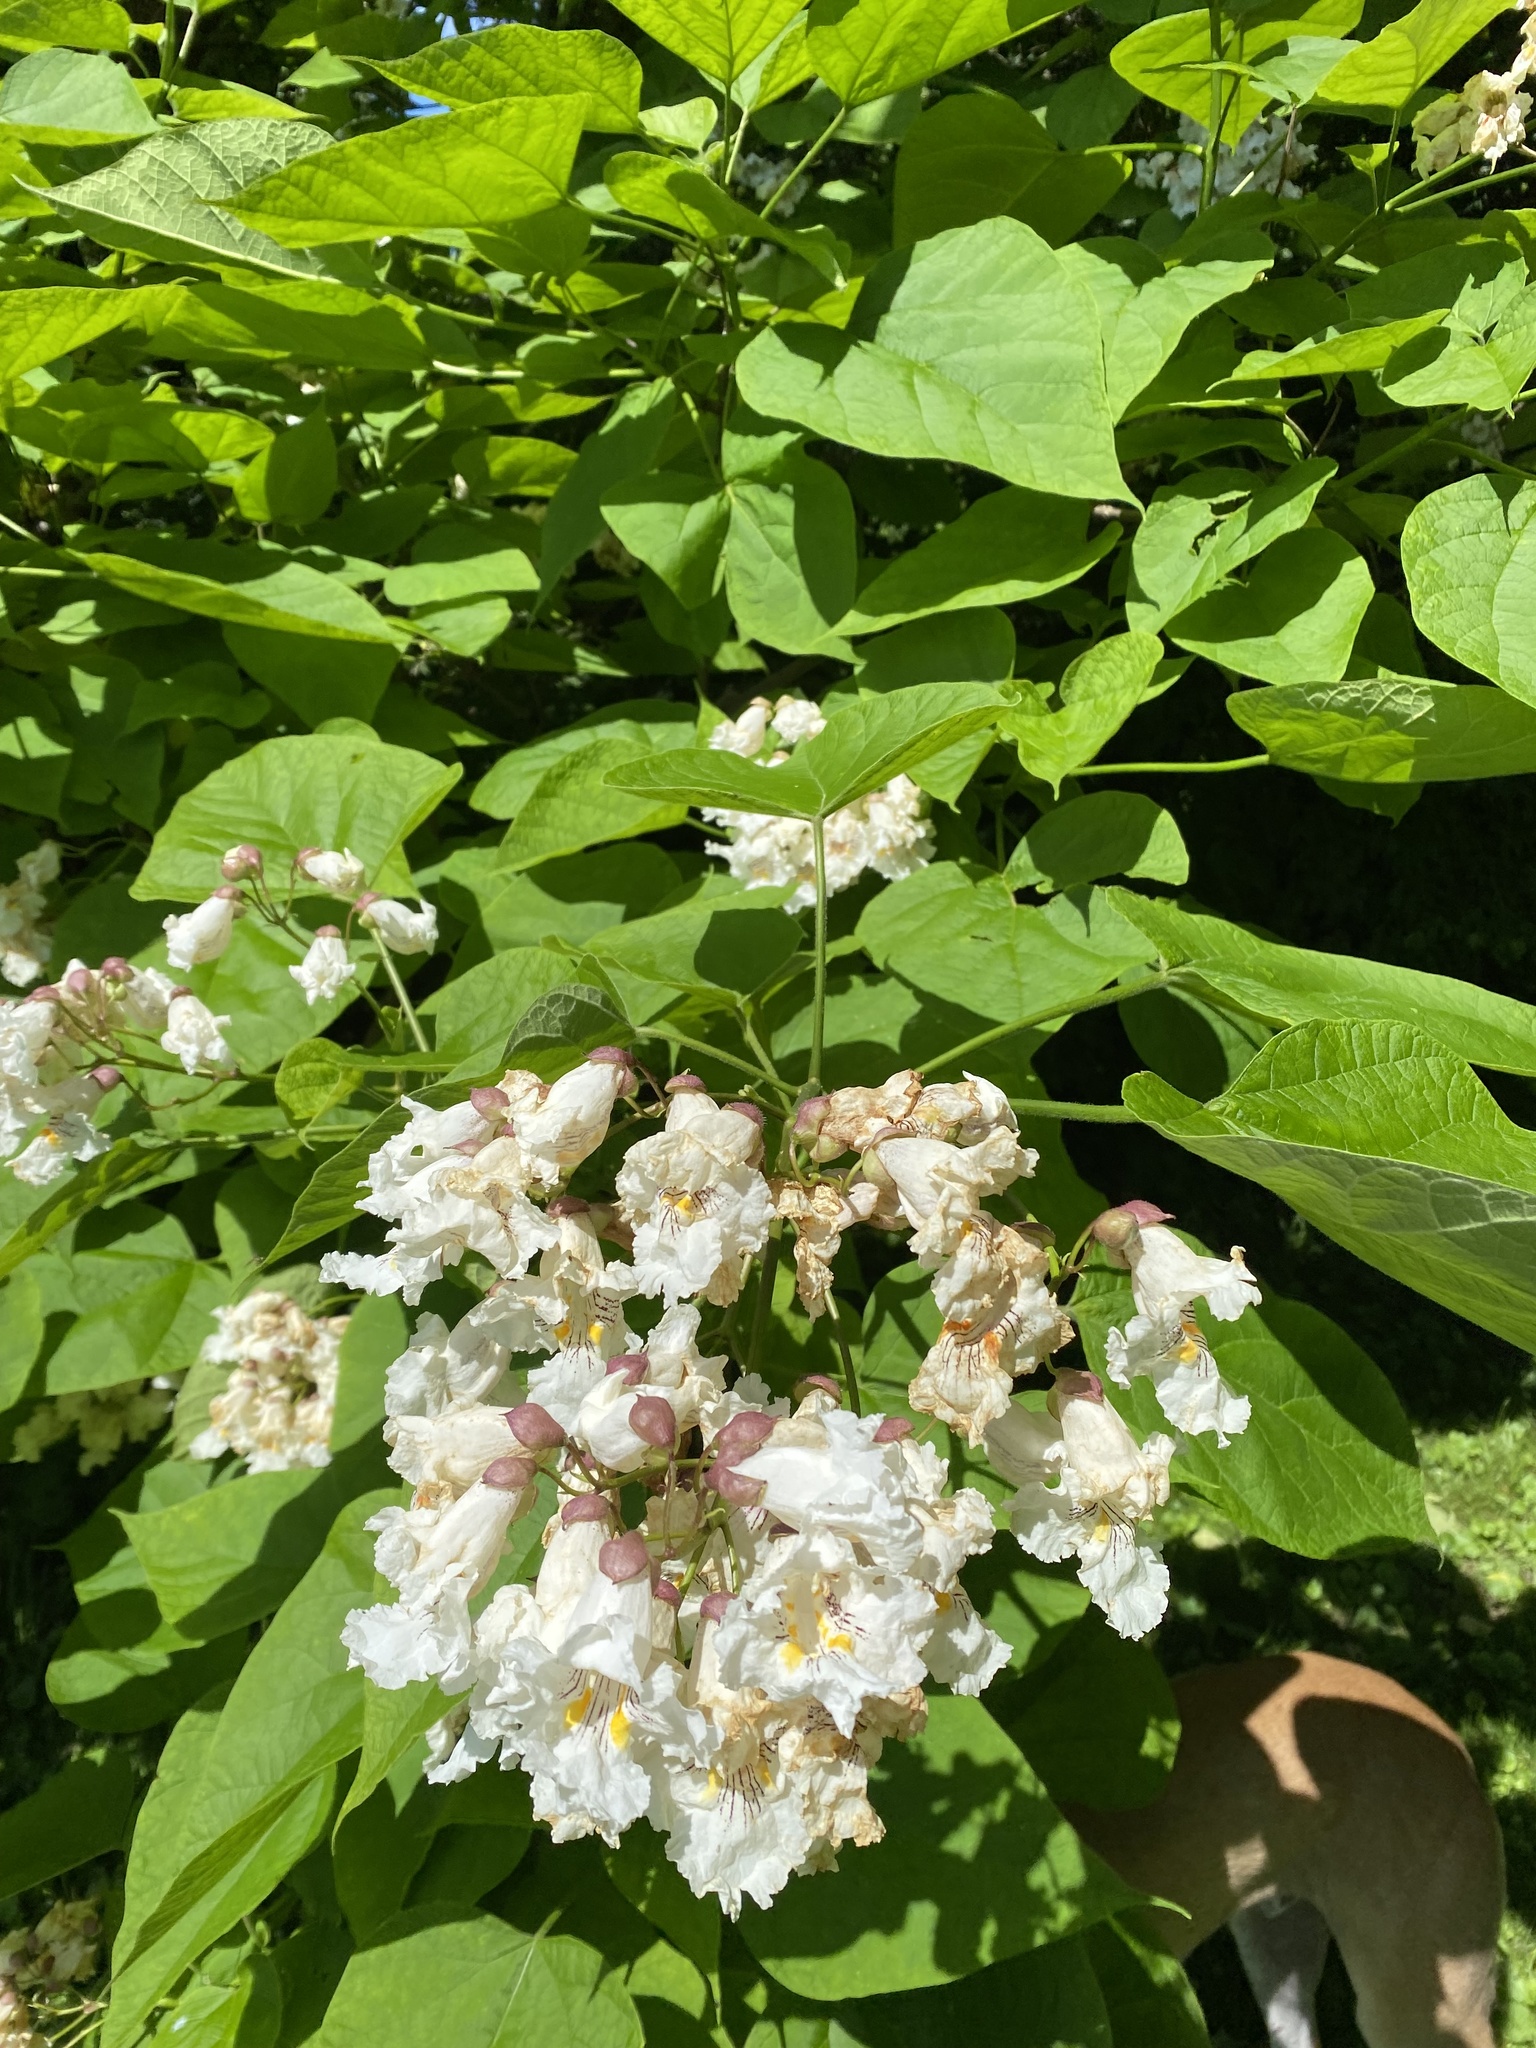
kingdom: Plantae
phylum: Tracheophyta
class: Magnoliopsida
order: Lamiales
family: Bignoniaceae
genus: Catalpa
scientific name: Catalpa speciosa
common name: Northern catalpa
